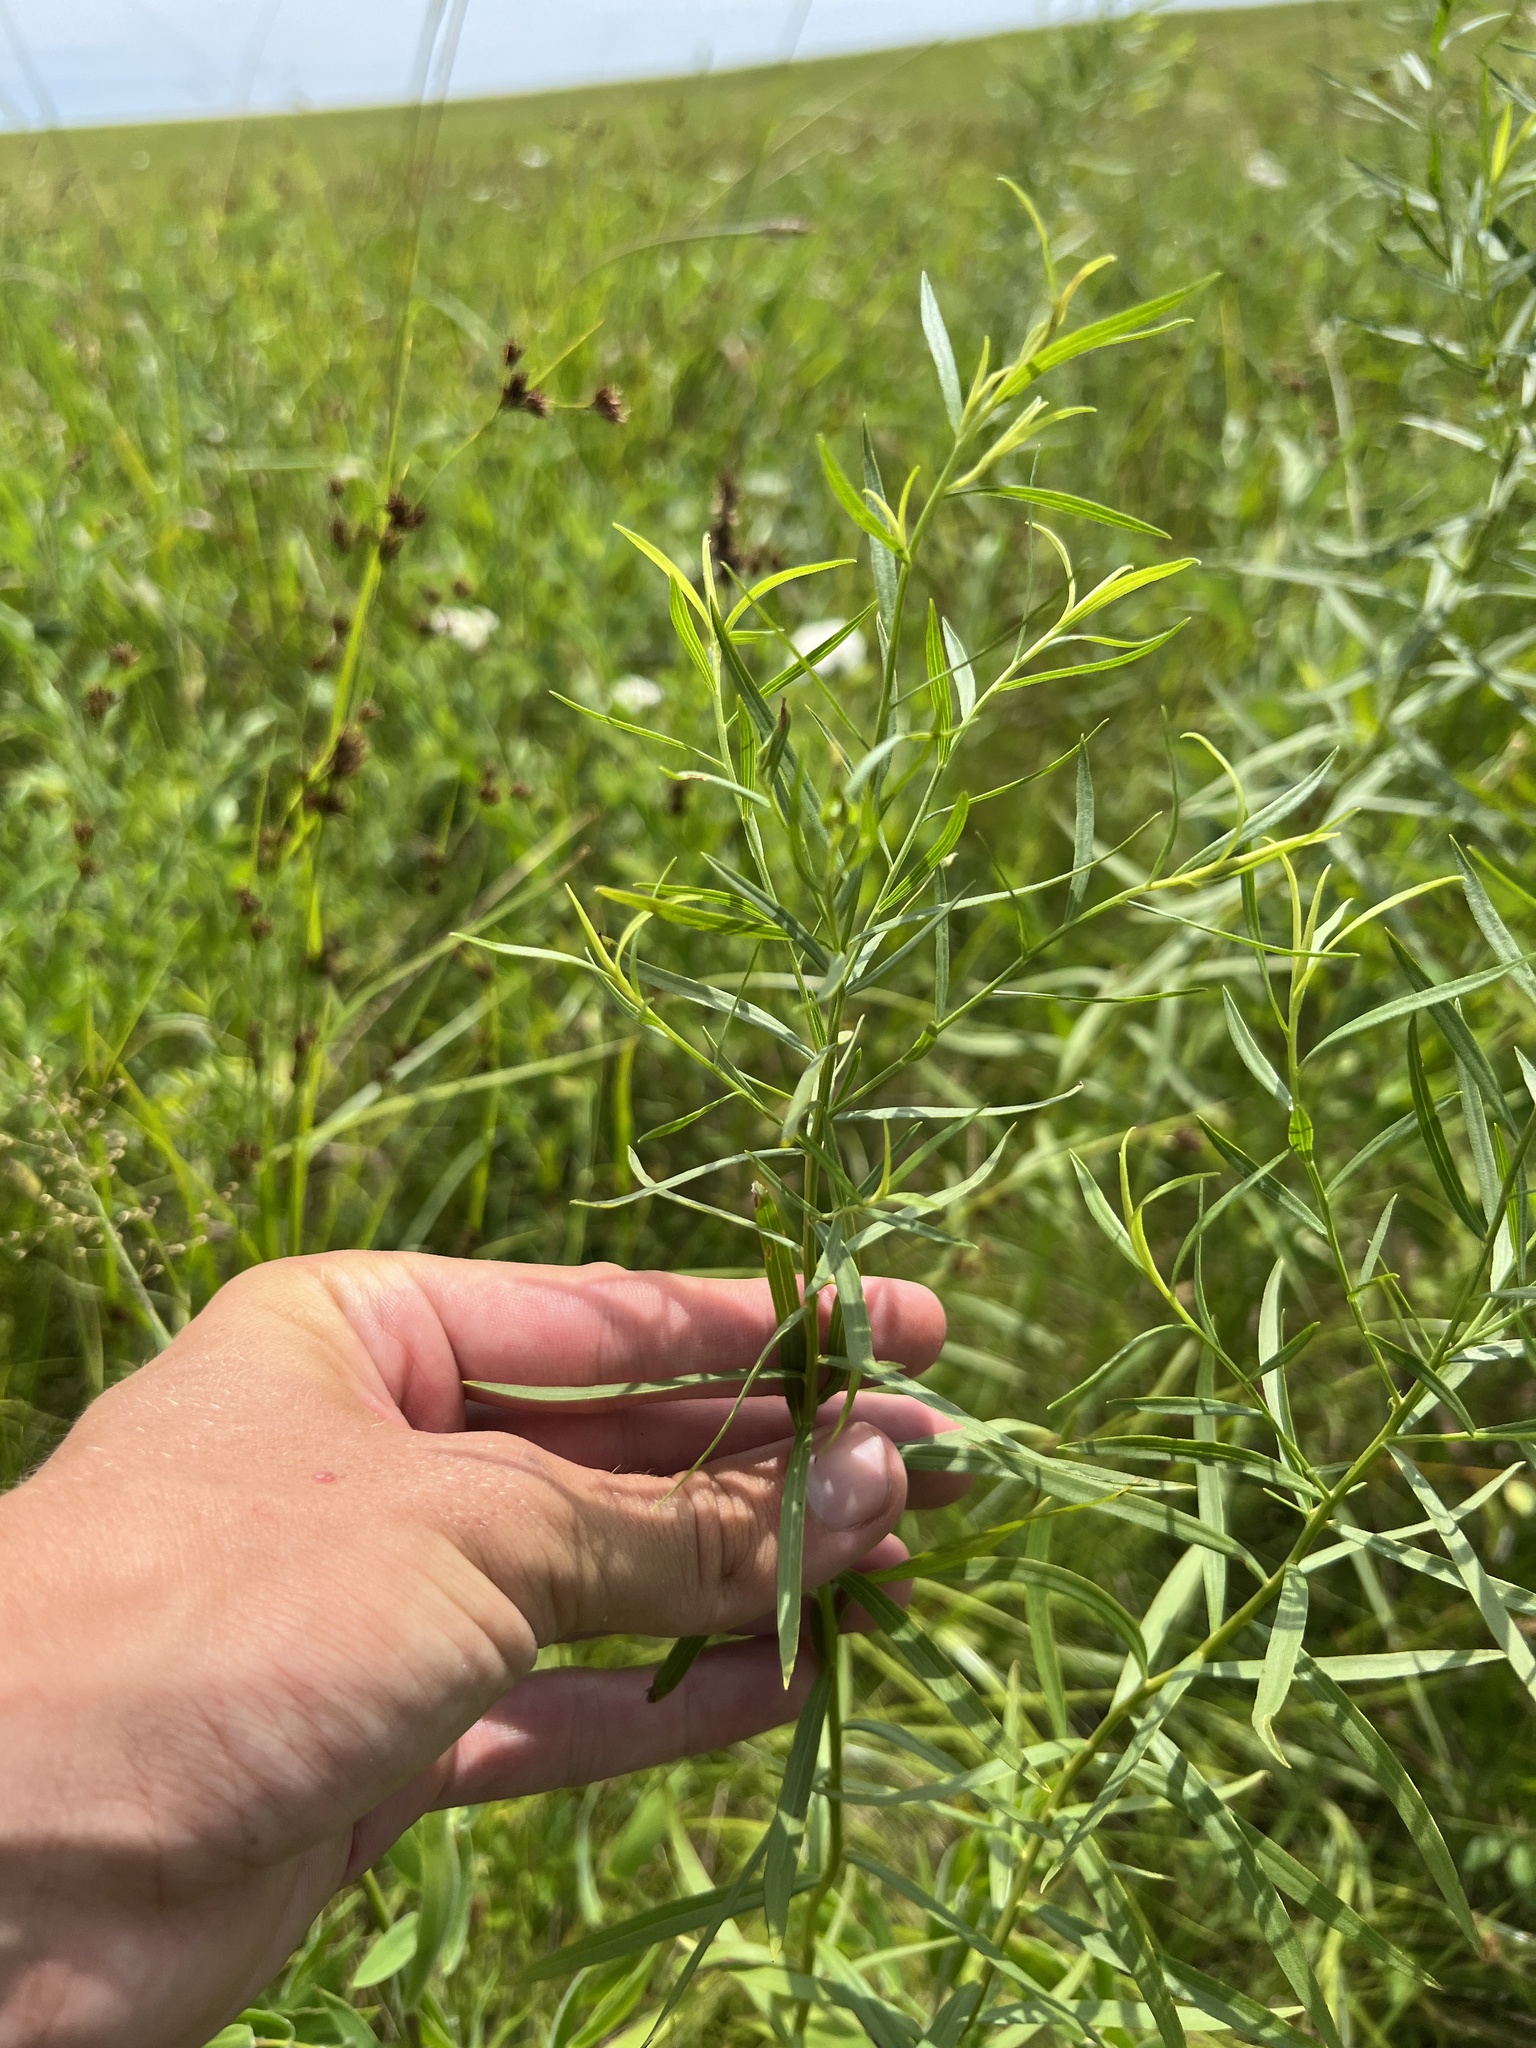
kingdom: Plantae
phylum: Tracheophyta
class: Magnoliopsida
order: Asterales
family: Asteraceae
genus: Euthamia
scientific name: Euthamia gymnospermoides
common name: Great plains goldentop
